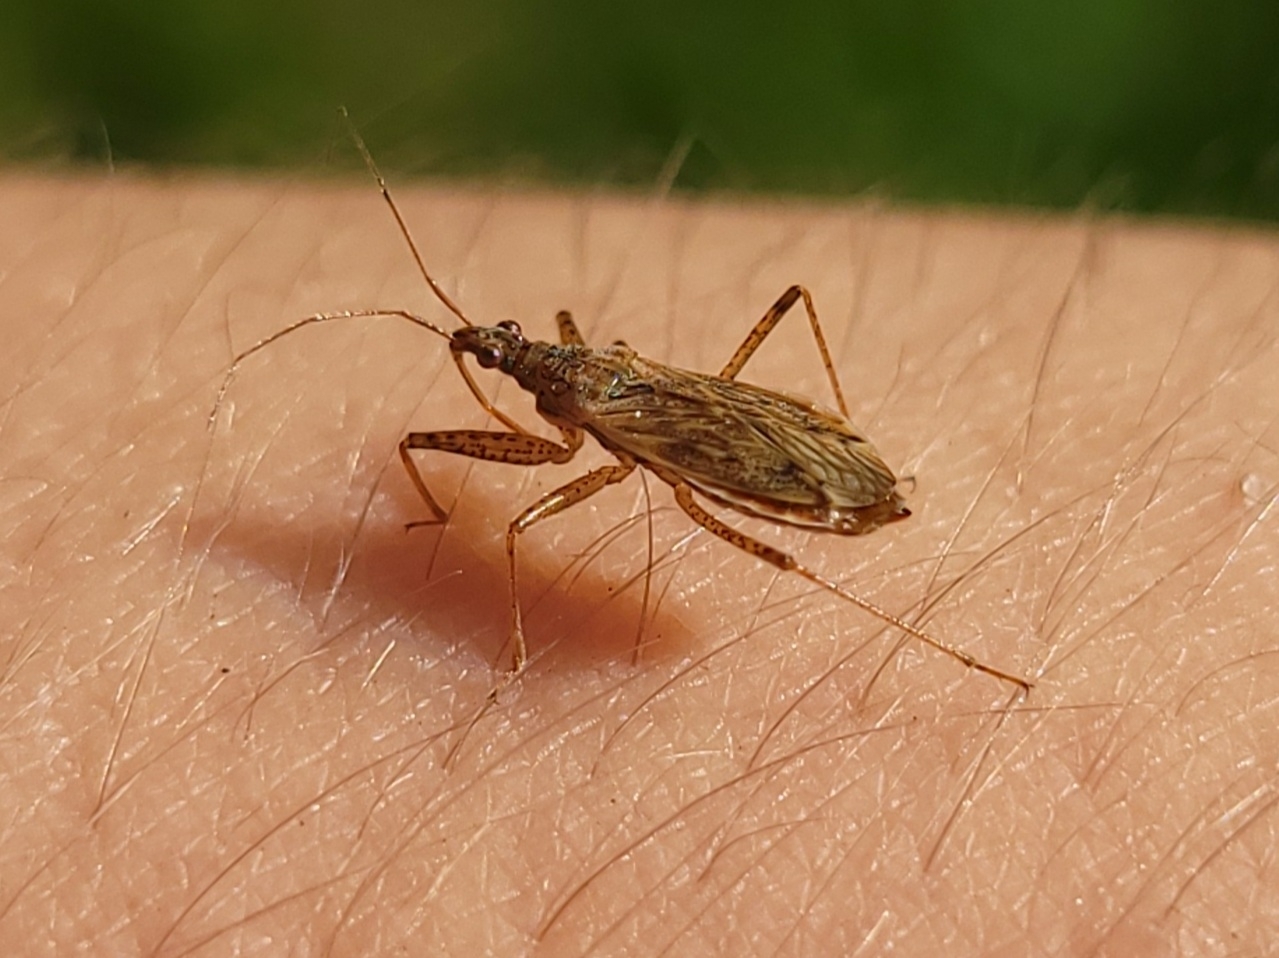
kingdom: Animalia
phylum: Arthropoda
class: Insecta
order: Hemiptera
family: Nabidae
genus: Nabis
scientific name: Nabis roseipennis
